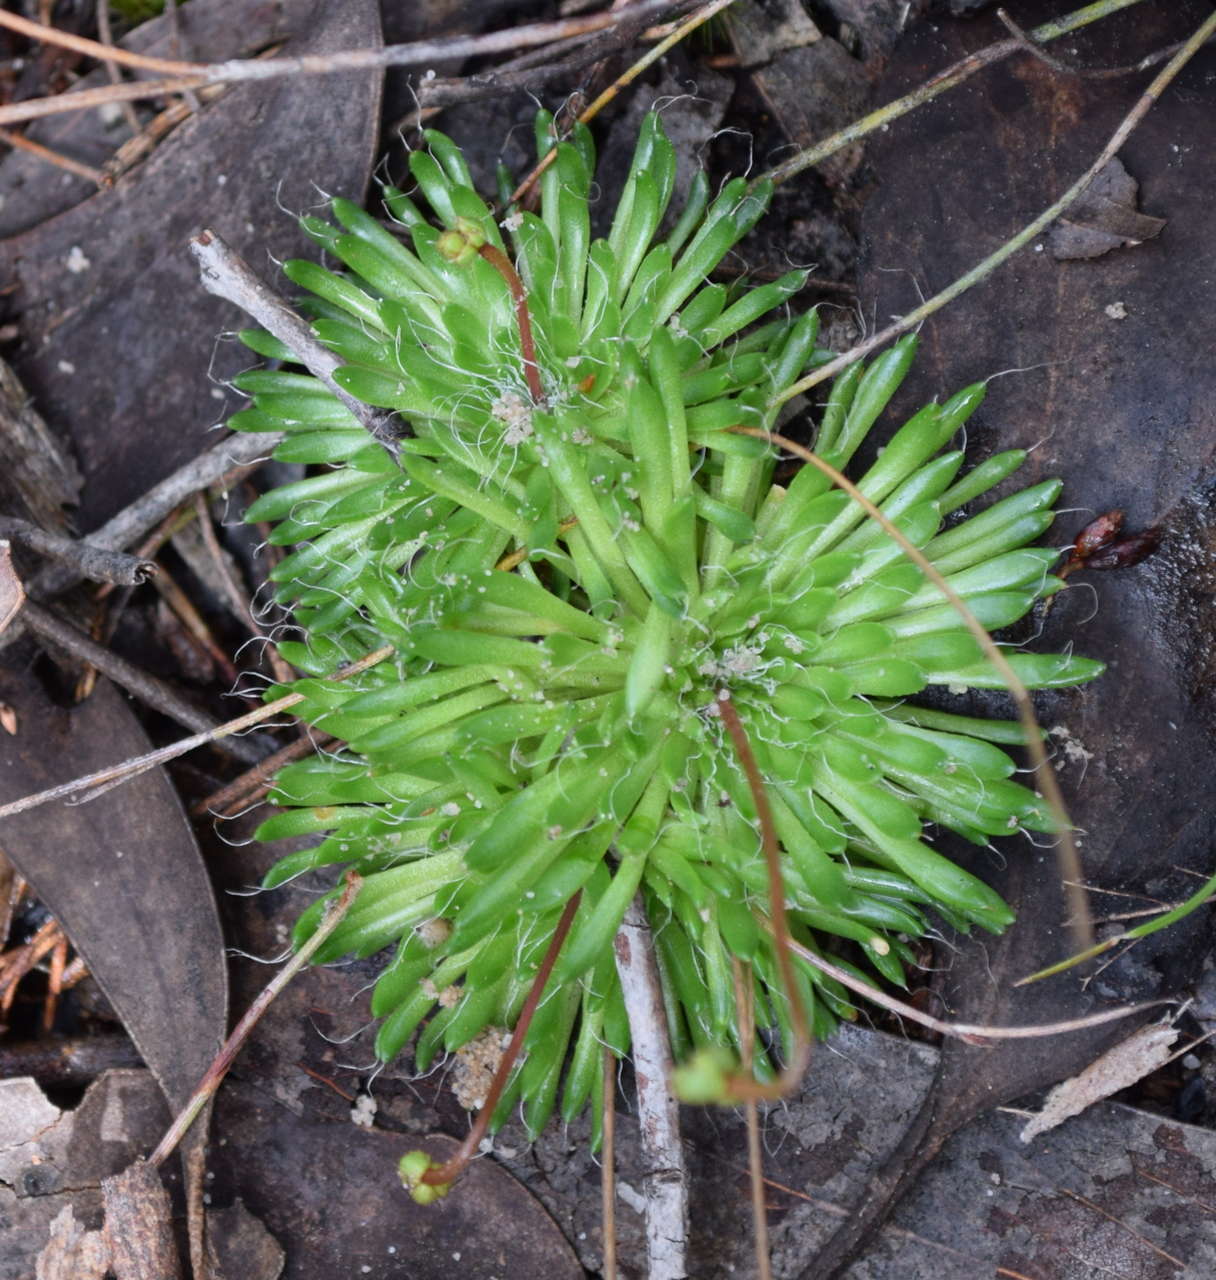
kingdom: Plantae
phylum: Tracheophyta
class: Magnoliopsida
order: Asterales
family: Stylidiaceae
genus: Stylidium
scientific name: Stylidium soboliferum
